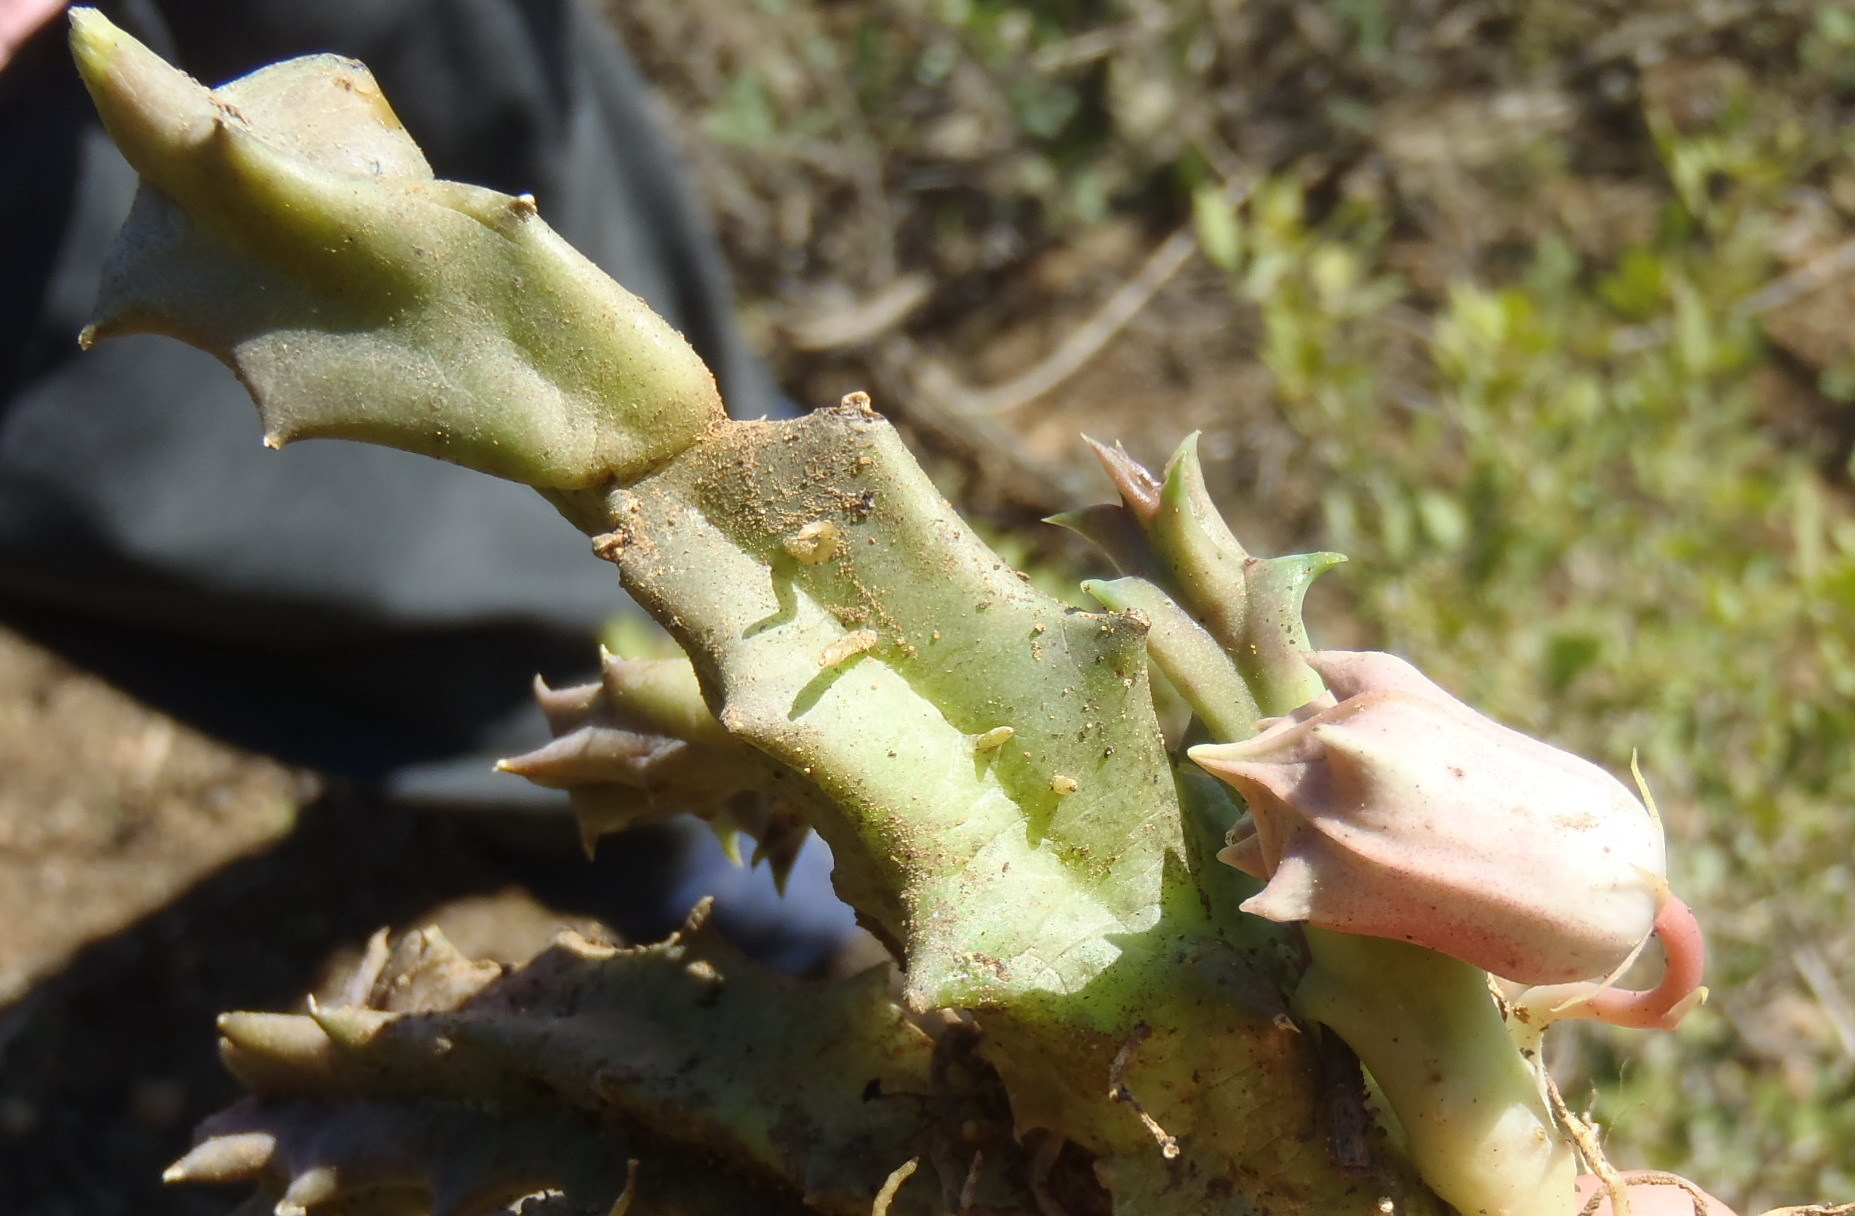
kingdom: Plantae
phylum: Tracheophyta
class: Magnoliopsida
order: Gentianales
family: Apocynaceae
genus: Ceropegia
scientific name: Ceropegia clavigera
